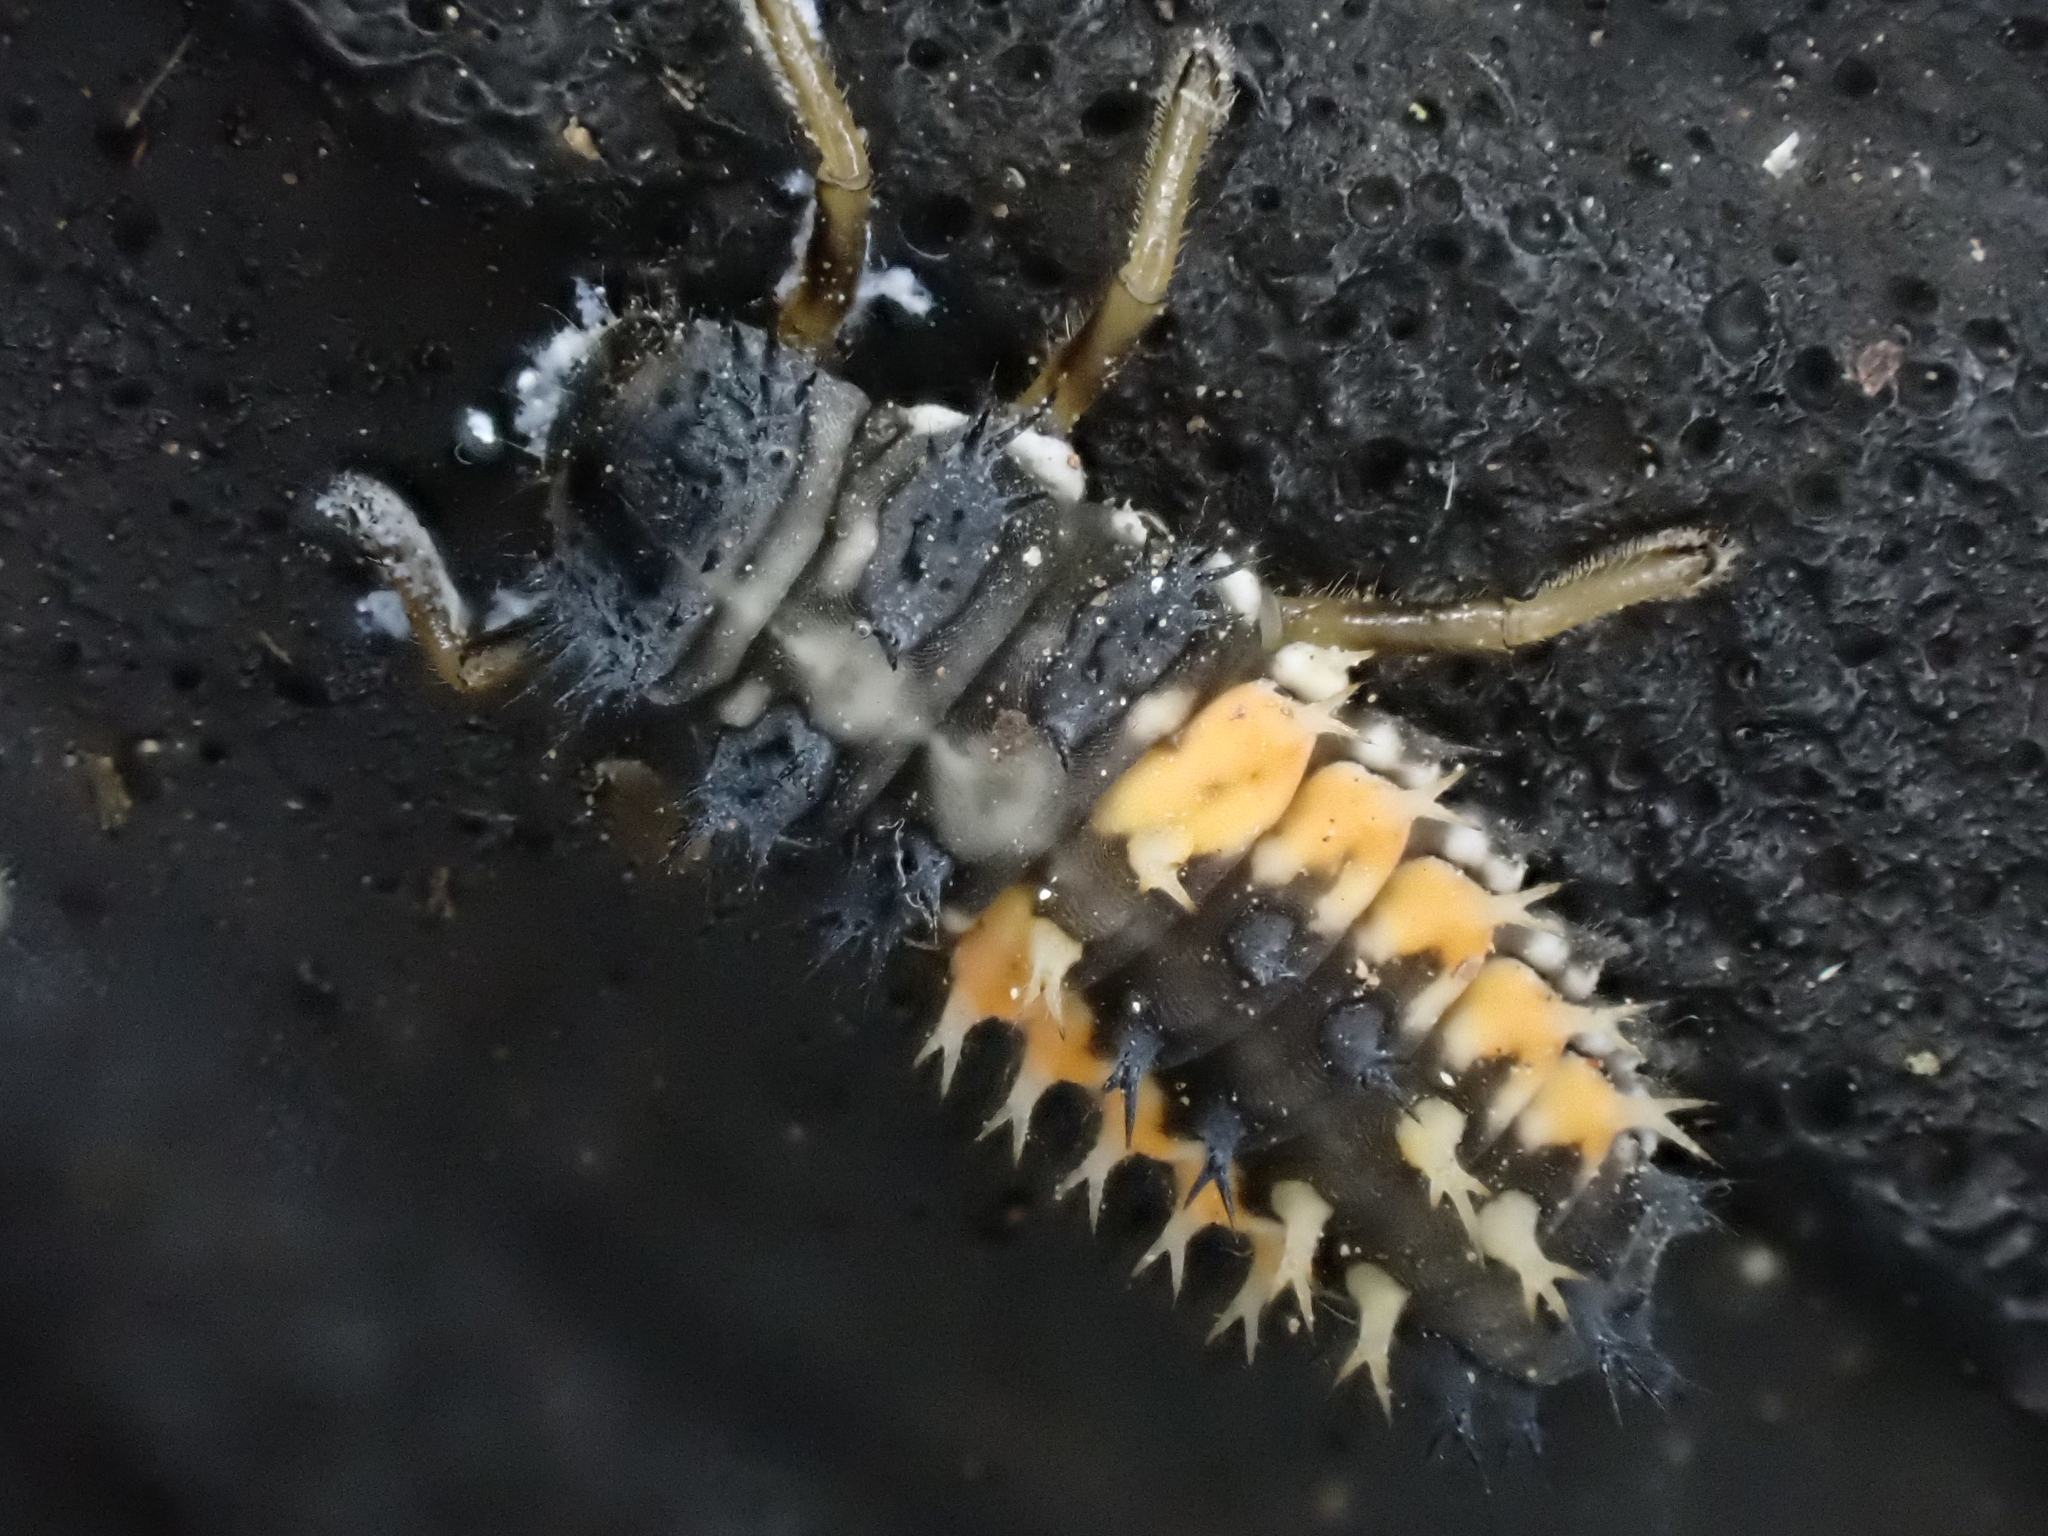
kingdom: Animalia
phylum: Arthropoda
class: Insecta
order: Coleoptera
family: Coccinellidae
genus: Harmonia
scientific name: Harmonia axyridis
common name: Harlequin ladybird
